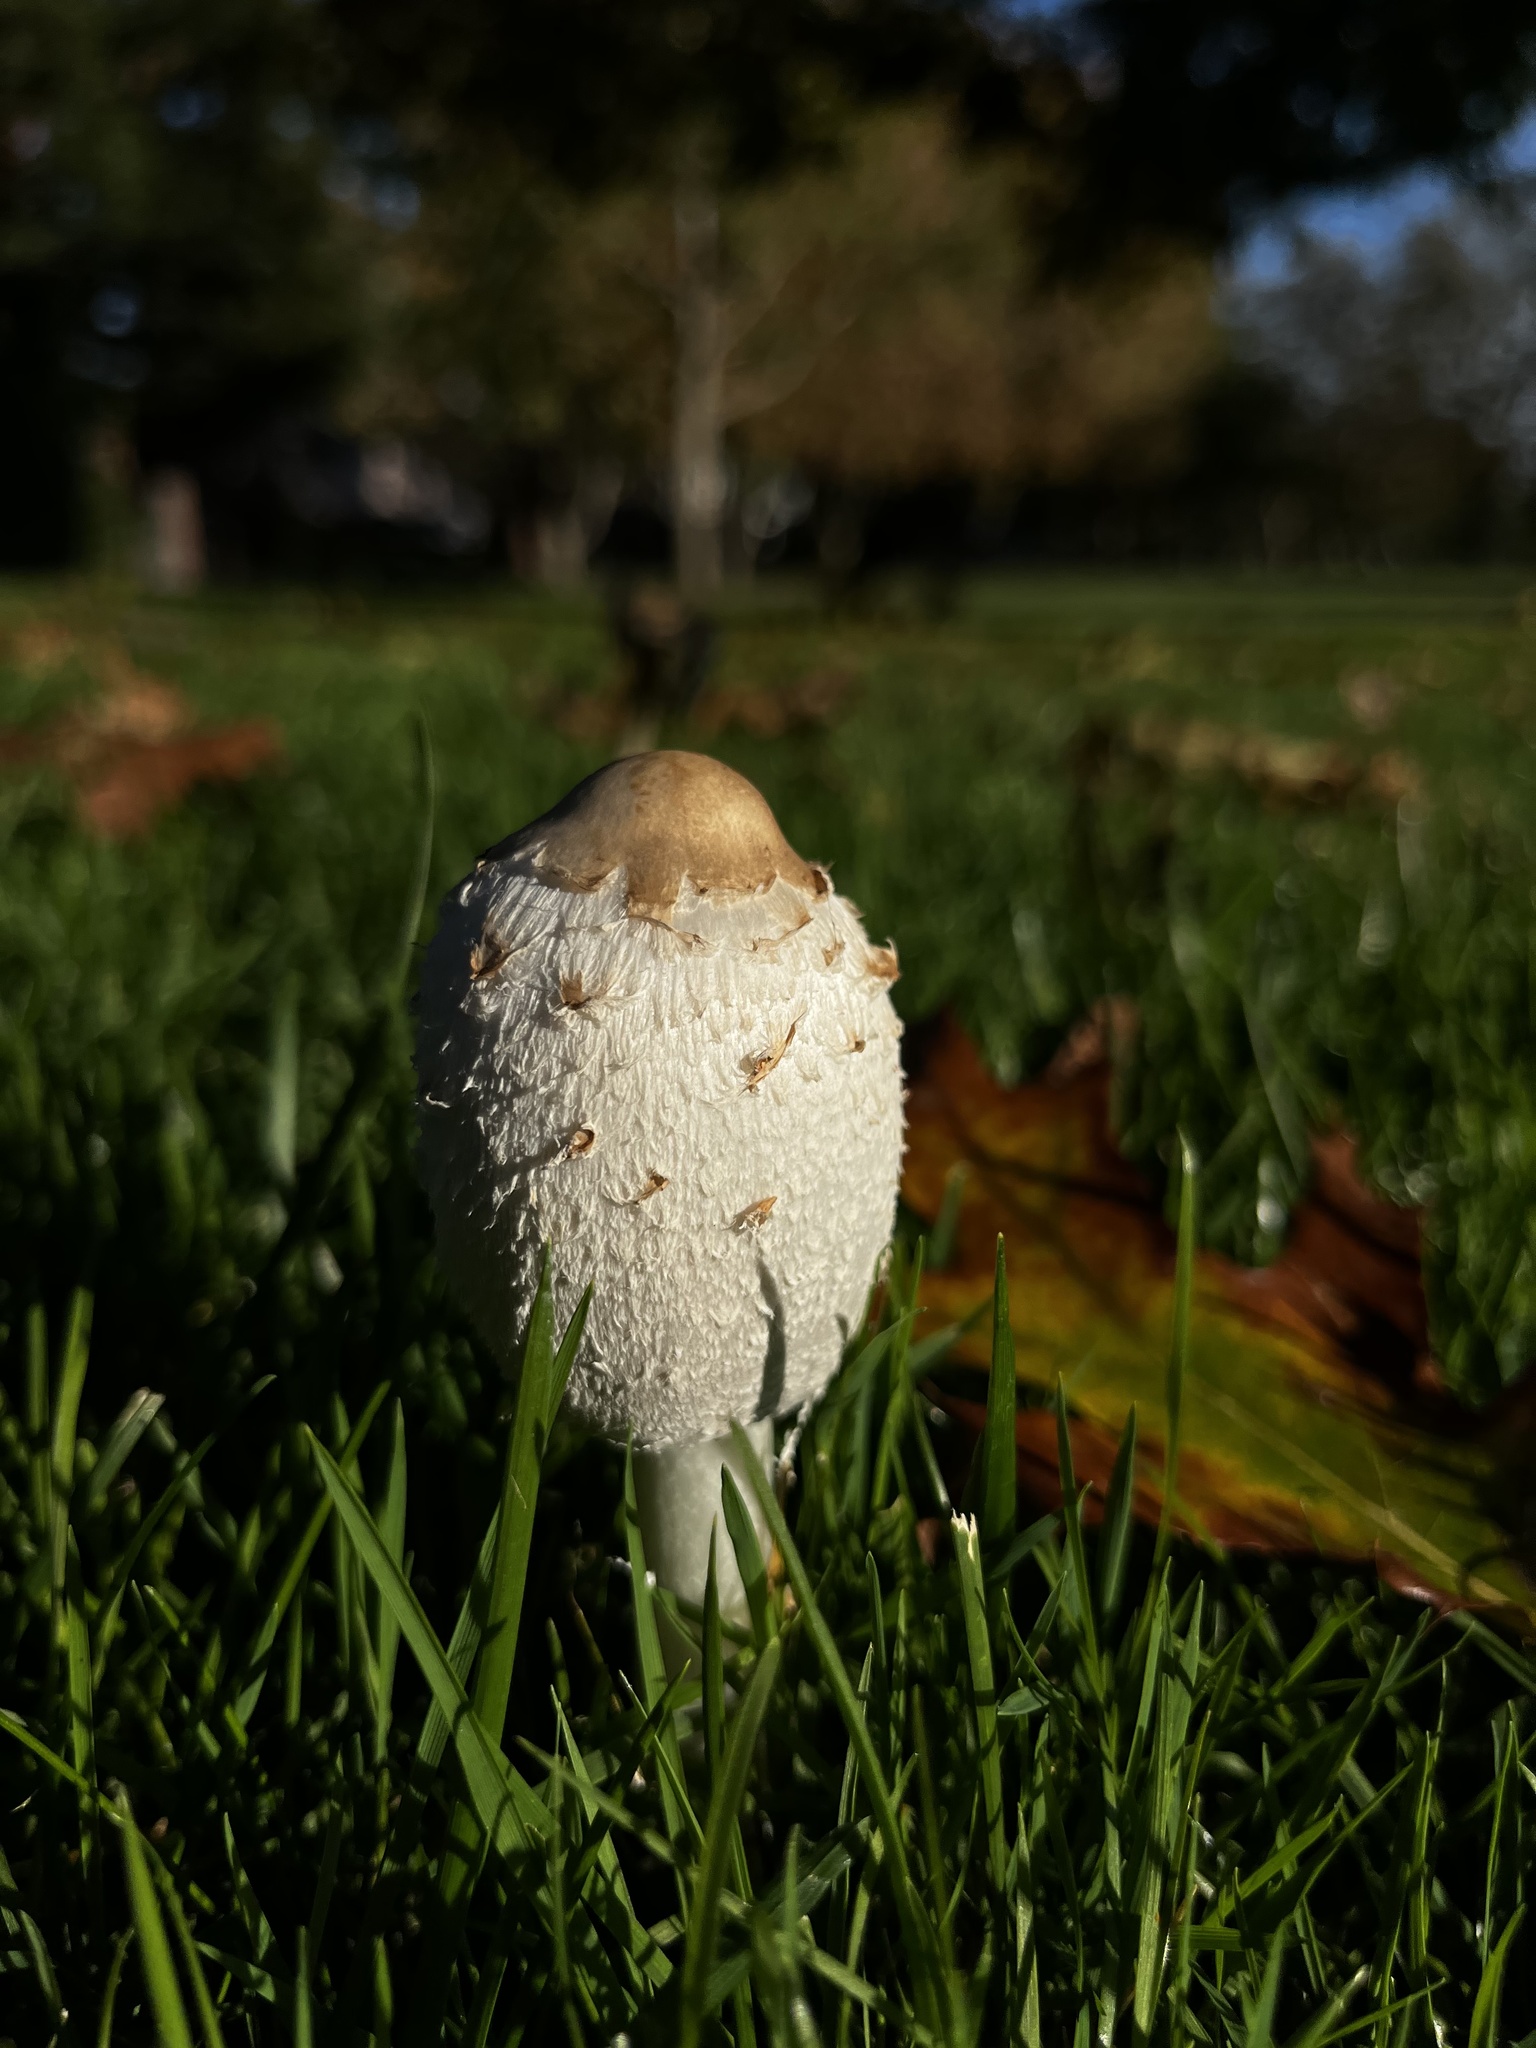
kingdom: Fungi
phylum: Basidiomycota
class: Agaricomycetes
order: Agaricales
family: Agaricaceae
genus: Coprinus
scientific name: Coprinus comatus
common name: Lawyer's wig
